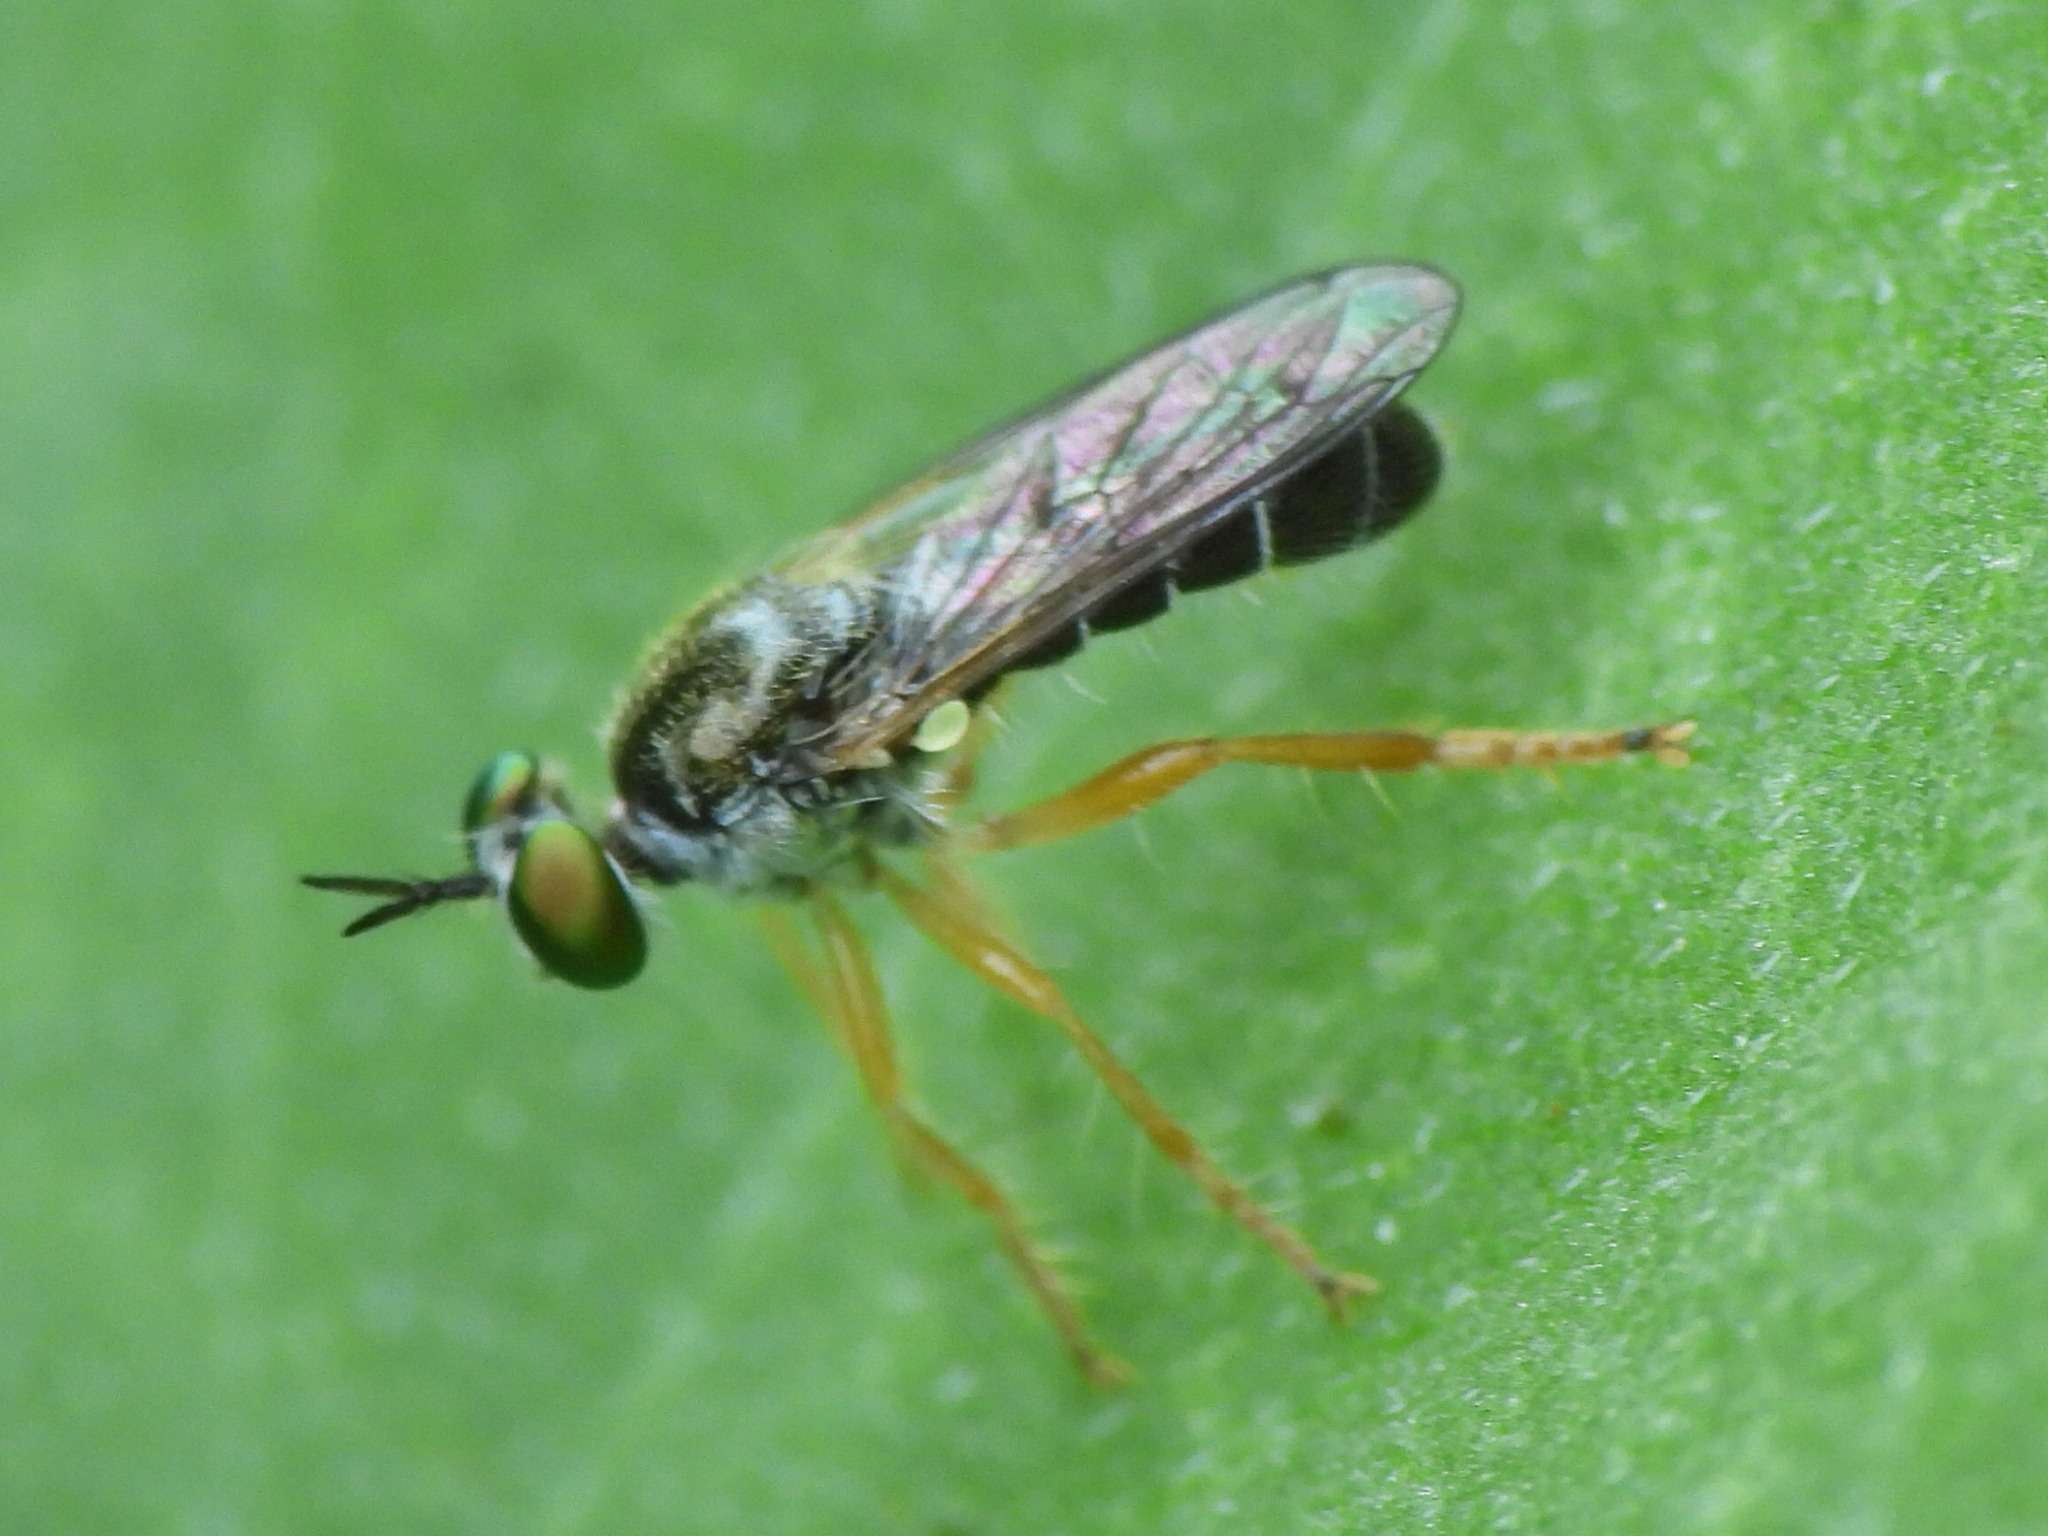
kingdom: Animalia
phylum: Arthropoda
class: Insecta
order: Diptera
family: Asilidae
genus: Atomosia
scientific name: Atomosia sayii
